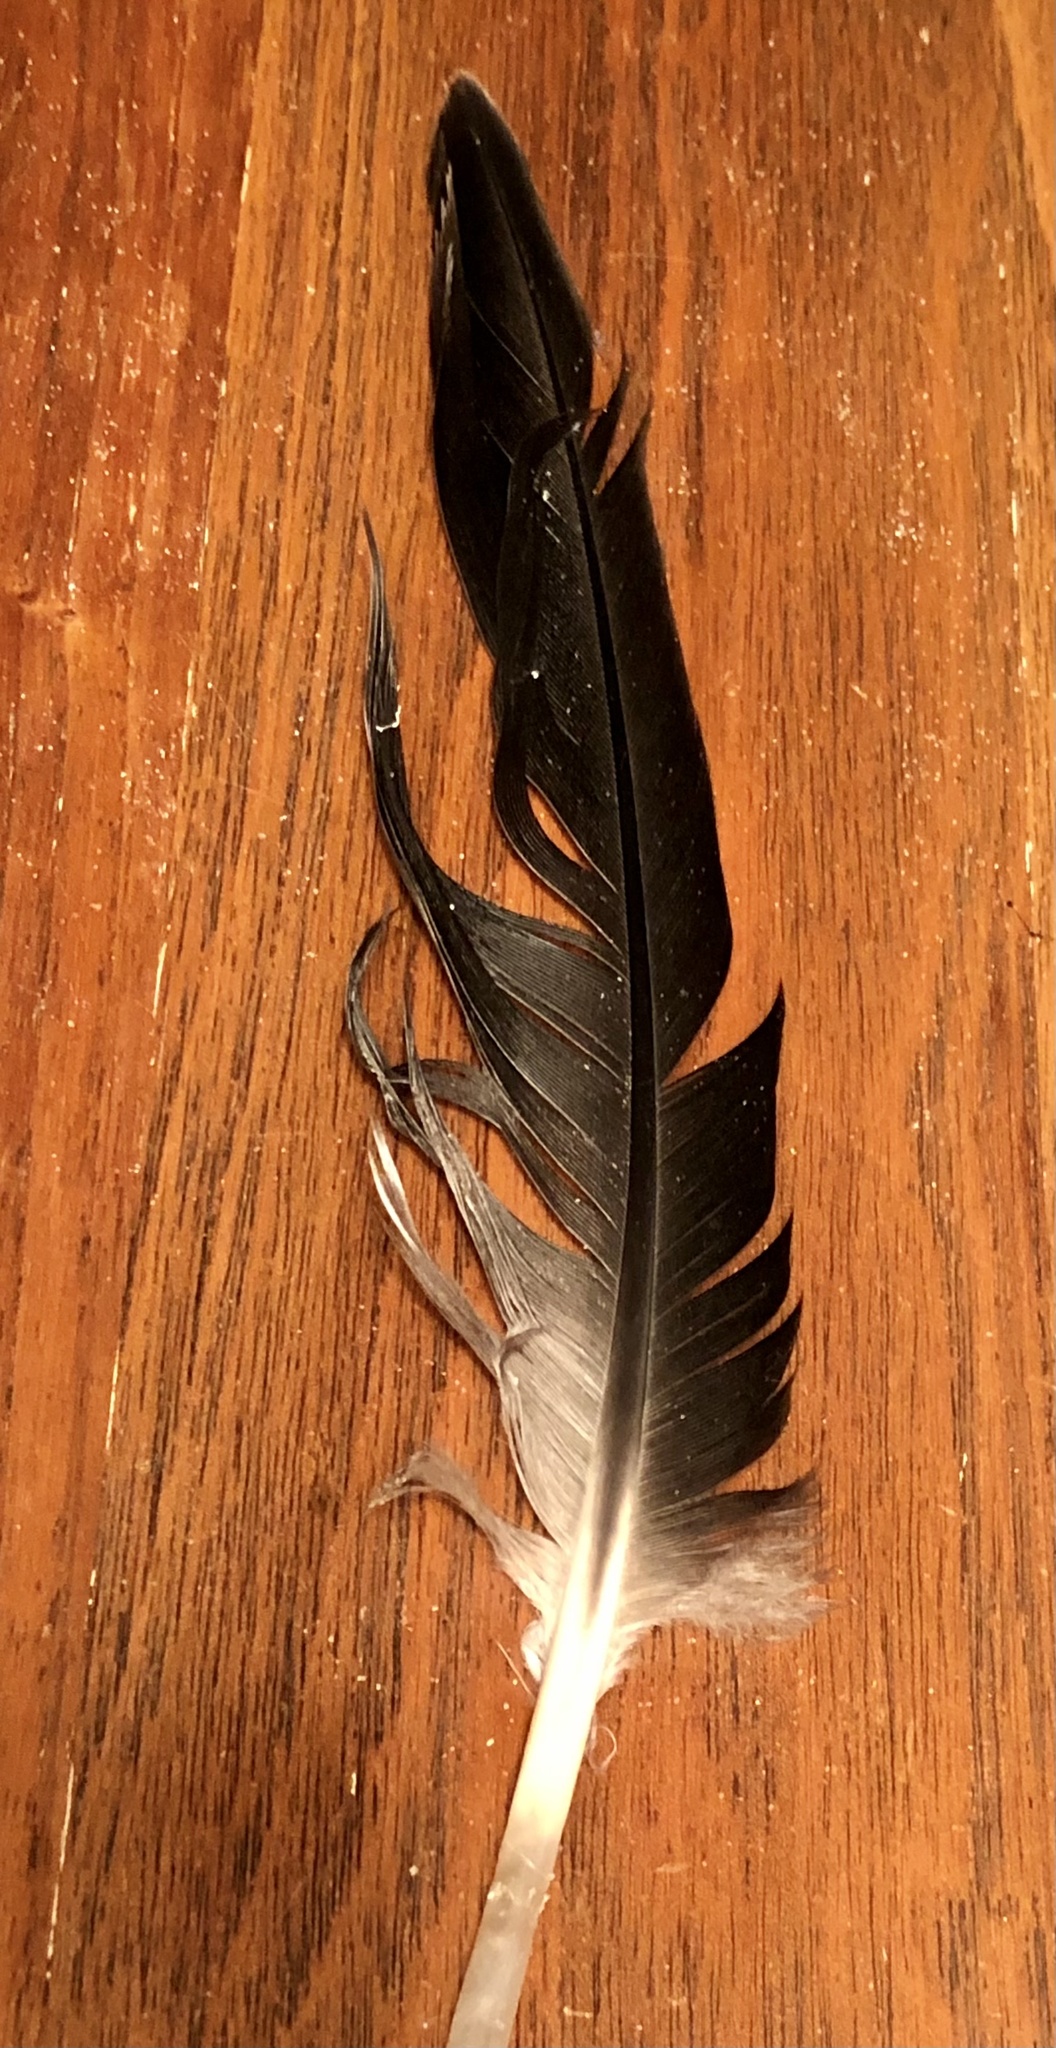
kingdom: Animalia
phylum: Chordata
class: Aves
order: Anseriformes
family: Anatidae
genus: Branta
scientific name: Branta canadensis
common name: Canada goose
